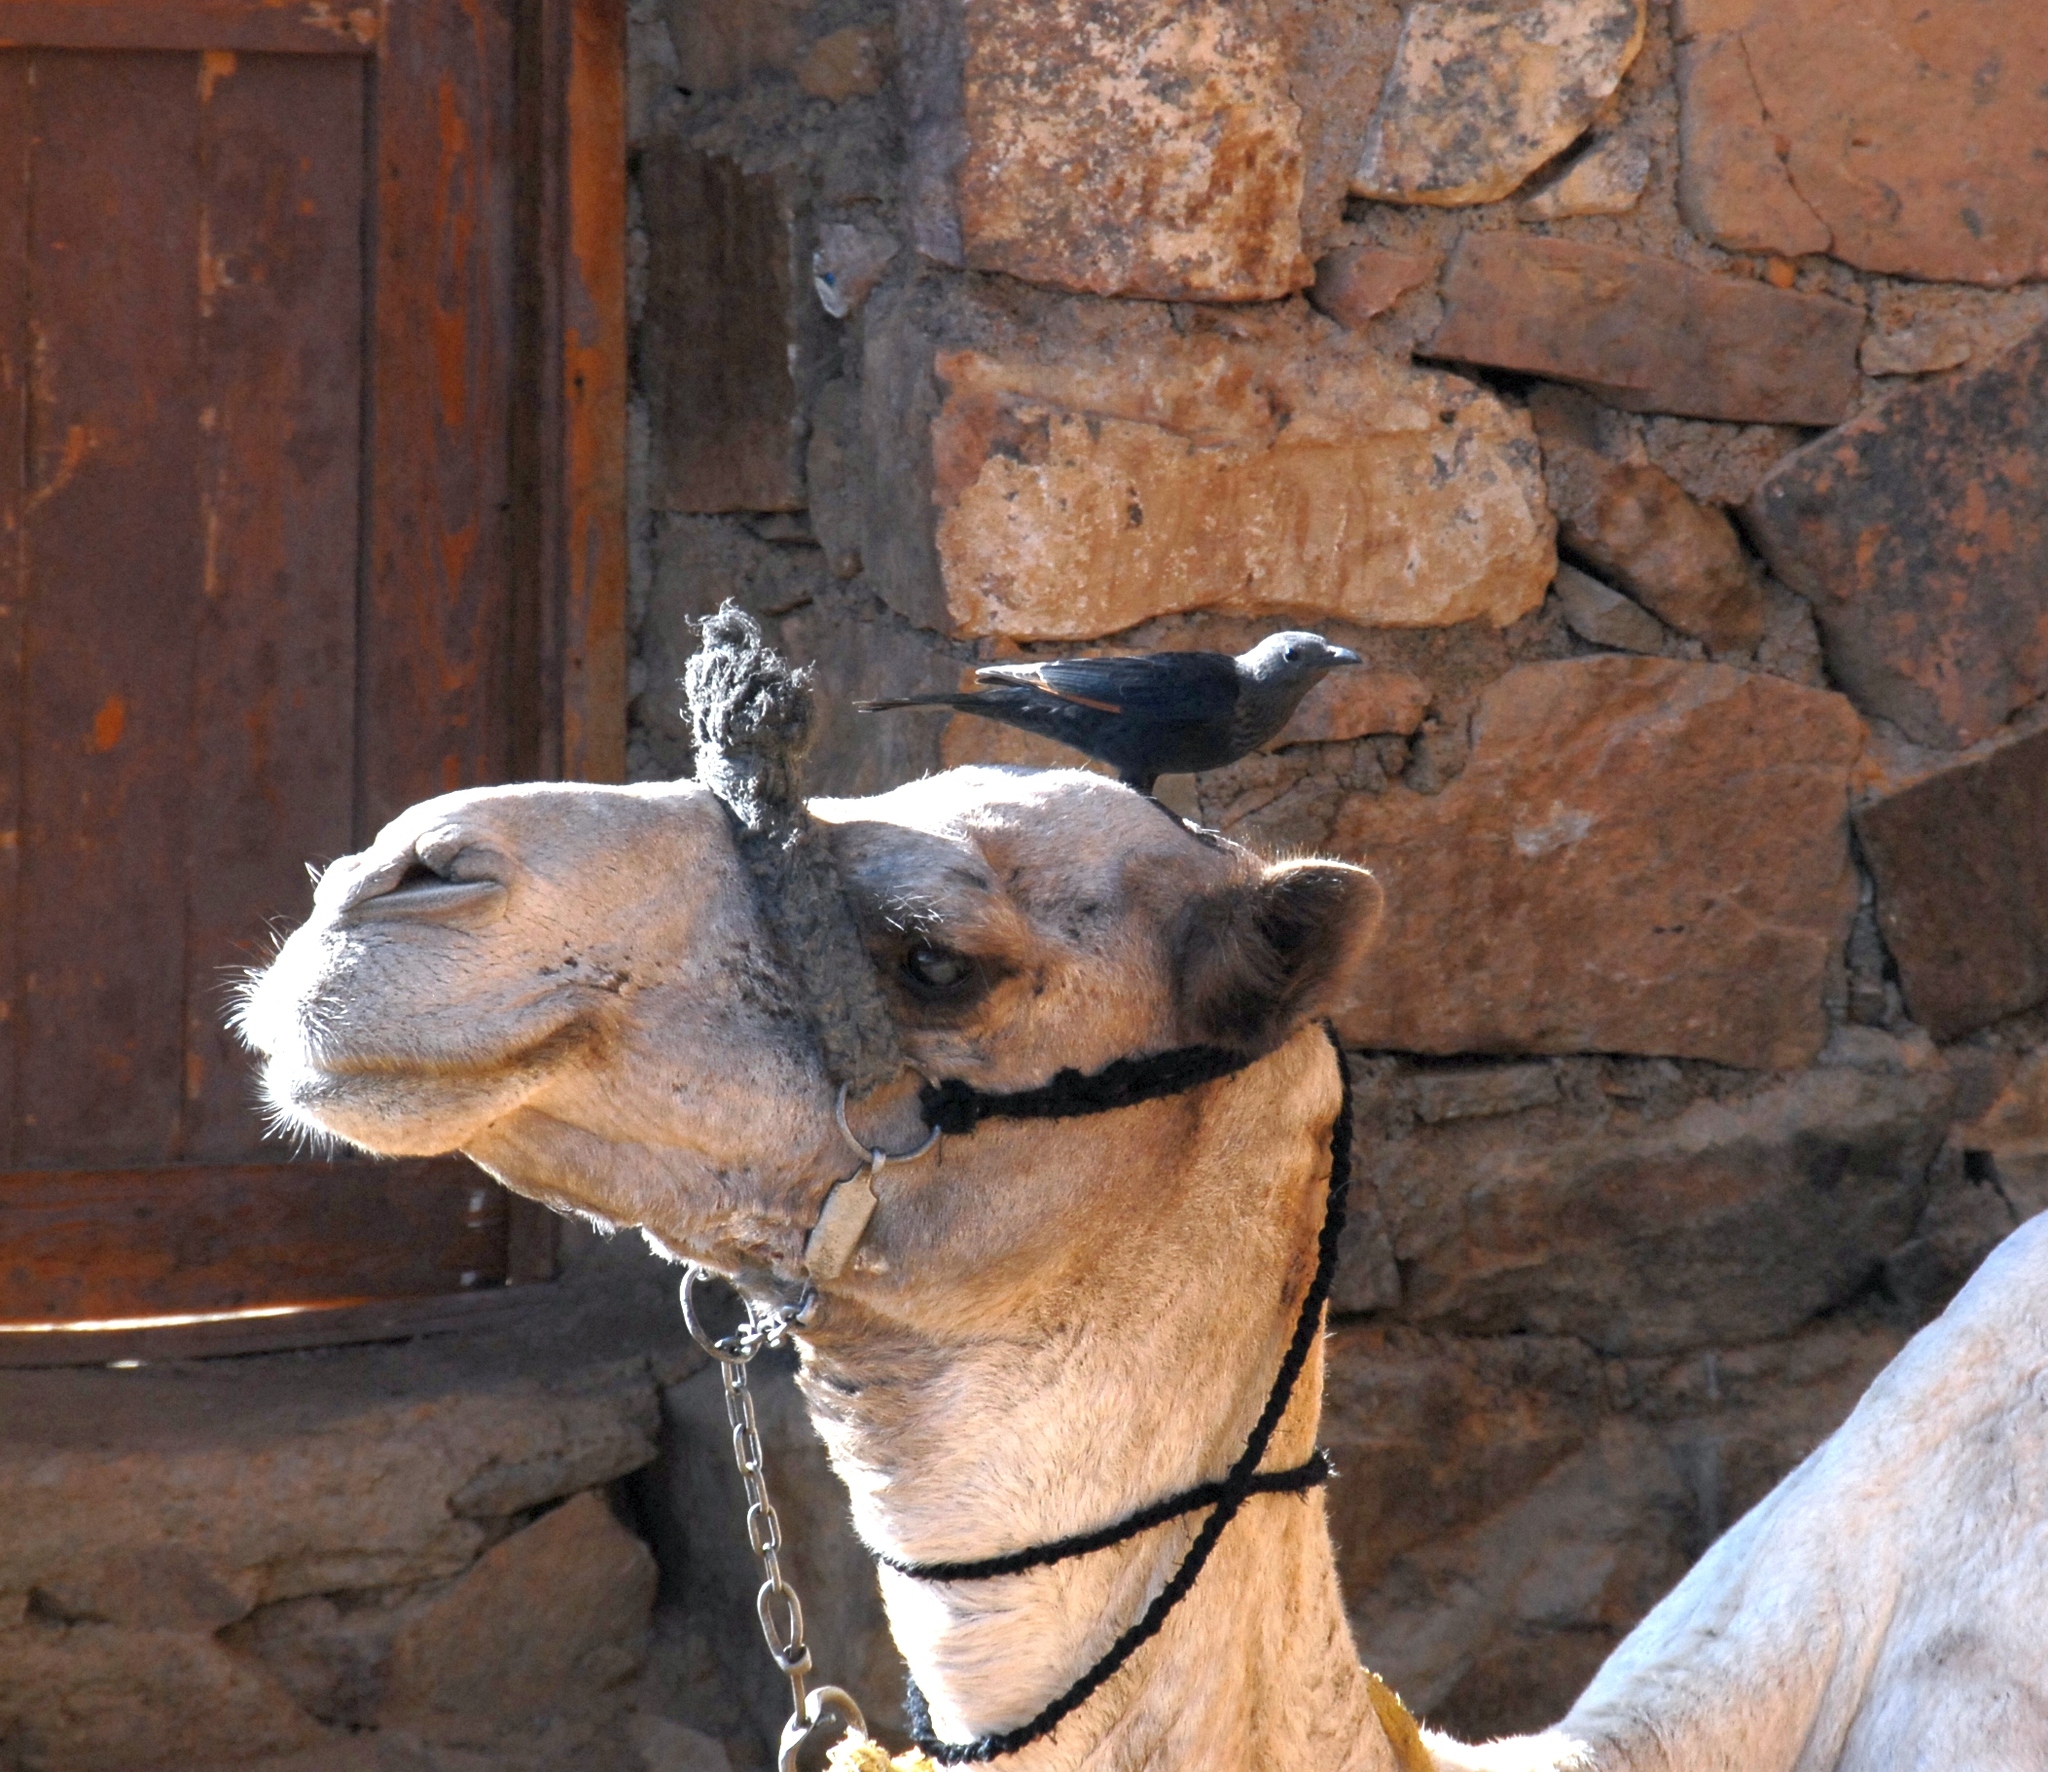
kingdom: Animalia
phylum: Chordata
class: Aves
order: Passeriformes
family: Sturnidae
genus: Onychognathus
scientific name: Onychognathus tristramii
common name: Tristram's starling
